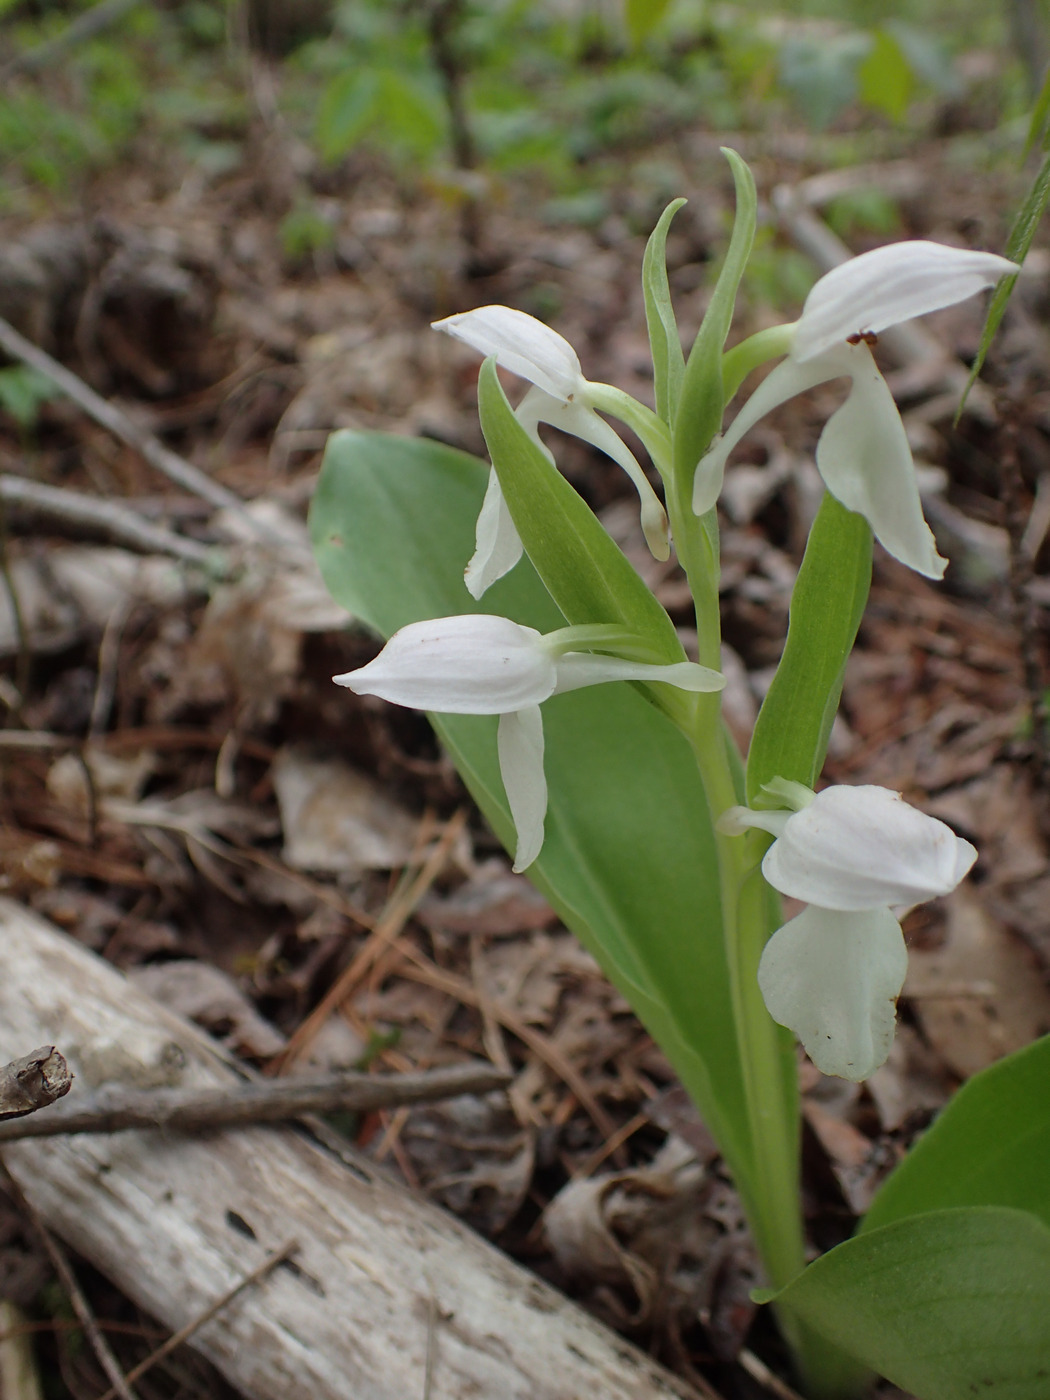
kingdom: Plantae
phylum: Tracheophyta
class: Liliopsida
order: Asparagales
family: Orchidaceae
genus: Galearis
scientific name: Galearis spectabilis
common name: Purple-hooded orchis
